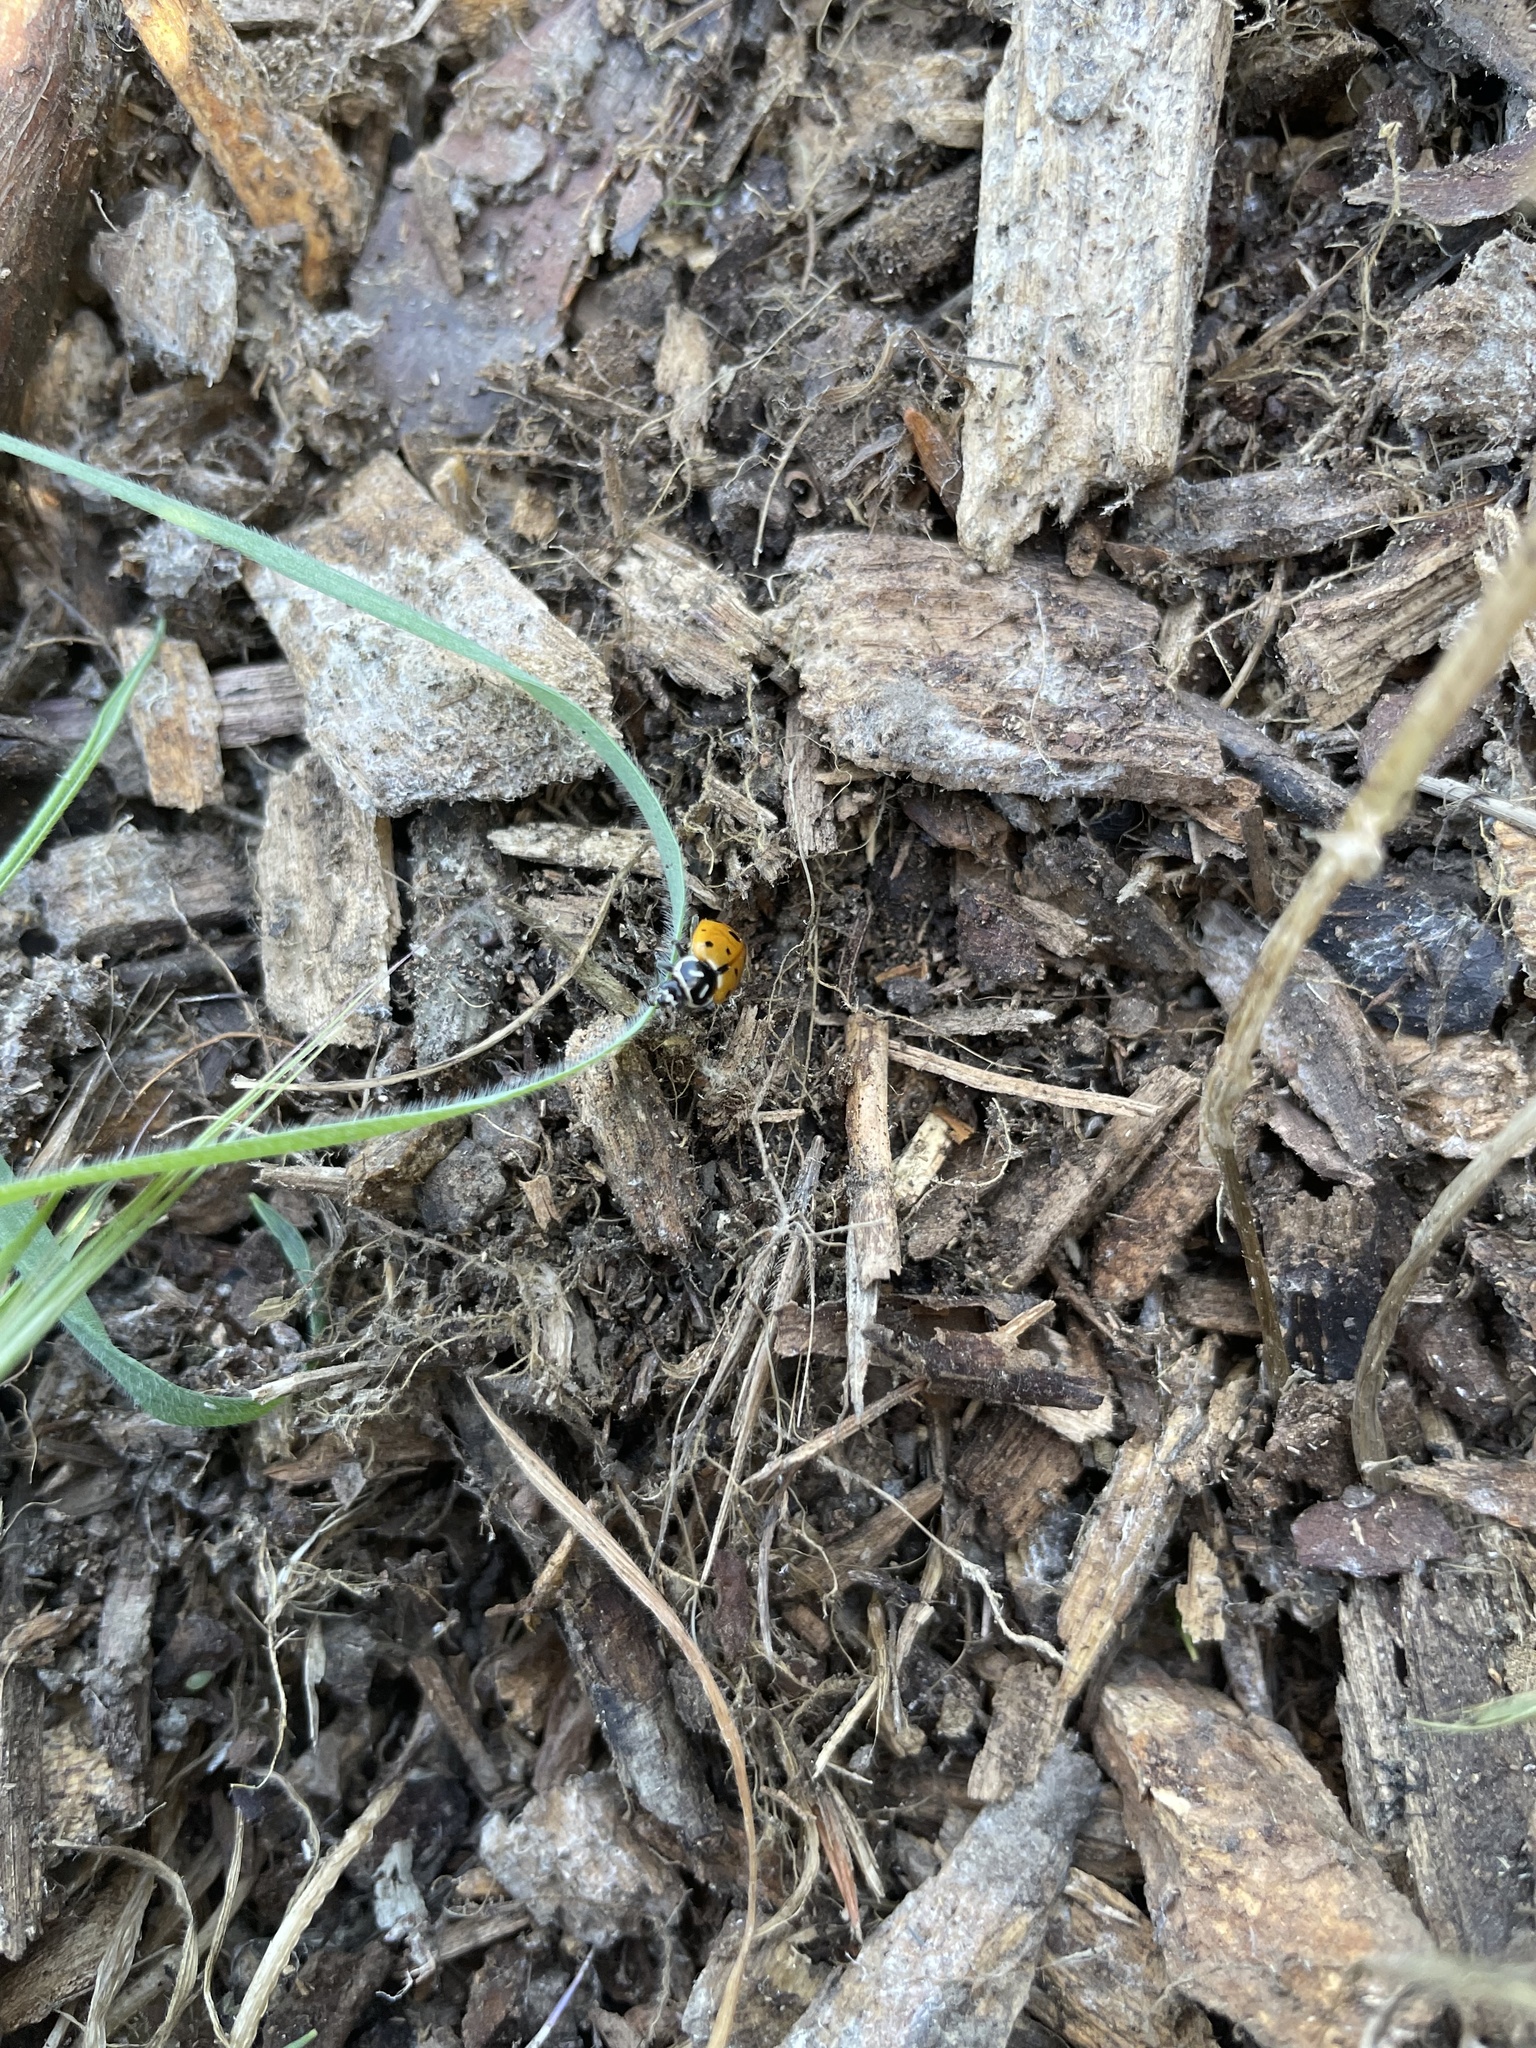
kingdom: Animalia
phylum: Arthropoda
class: Insecta
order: Coleoptera
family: Coccinellidae
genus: Hippodamia
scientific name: Hippodamia convergens
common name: Convergent lady beetle
